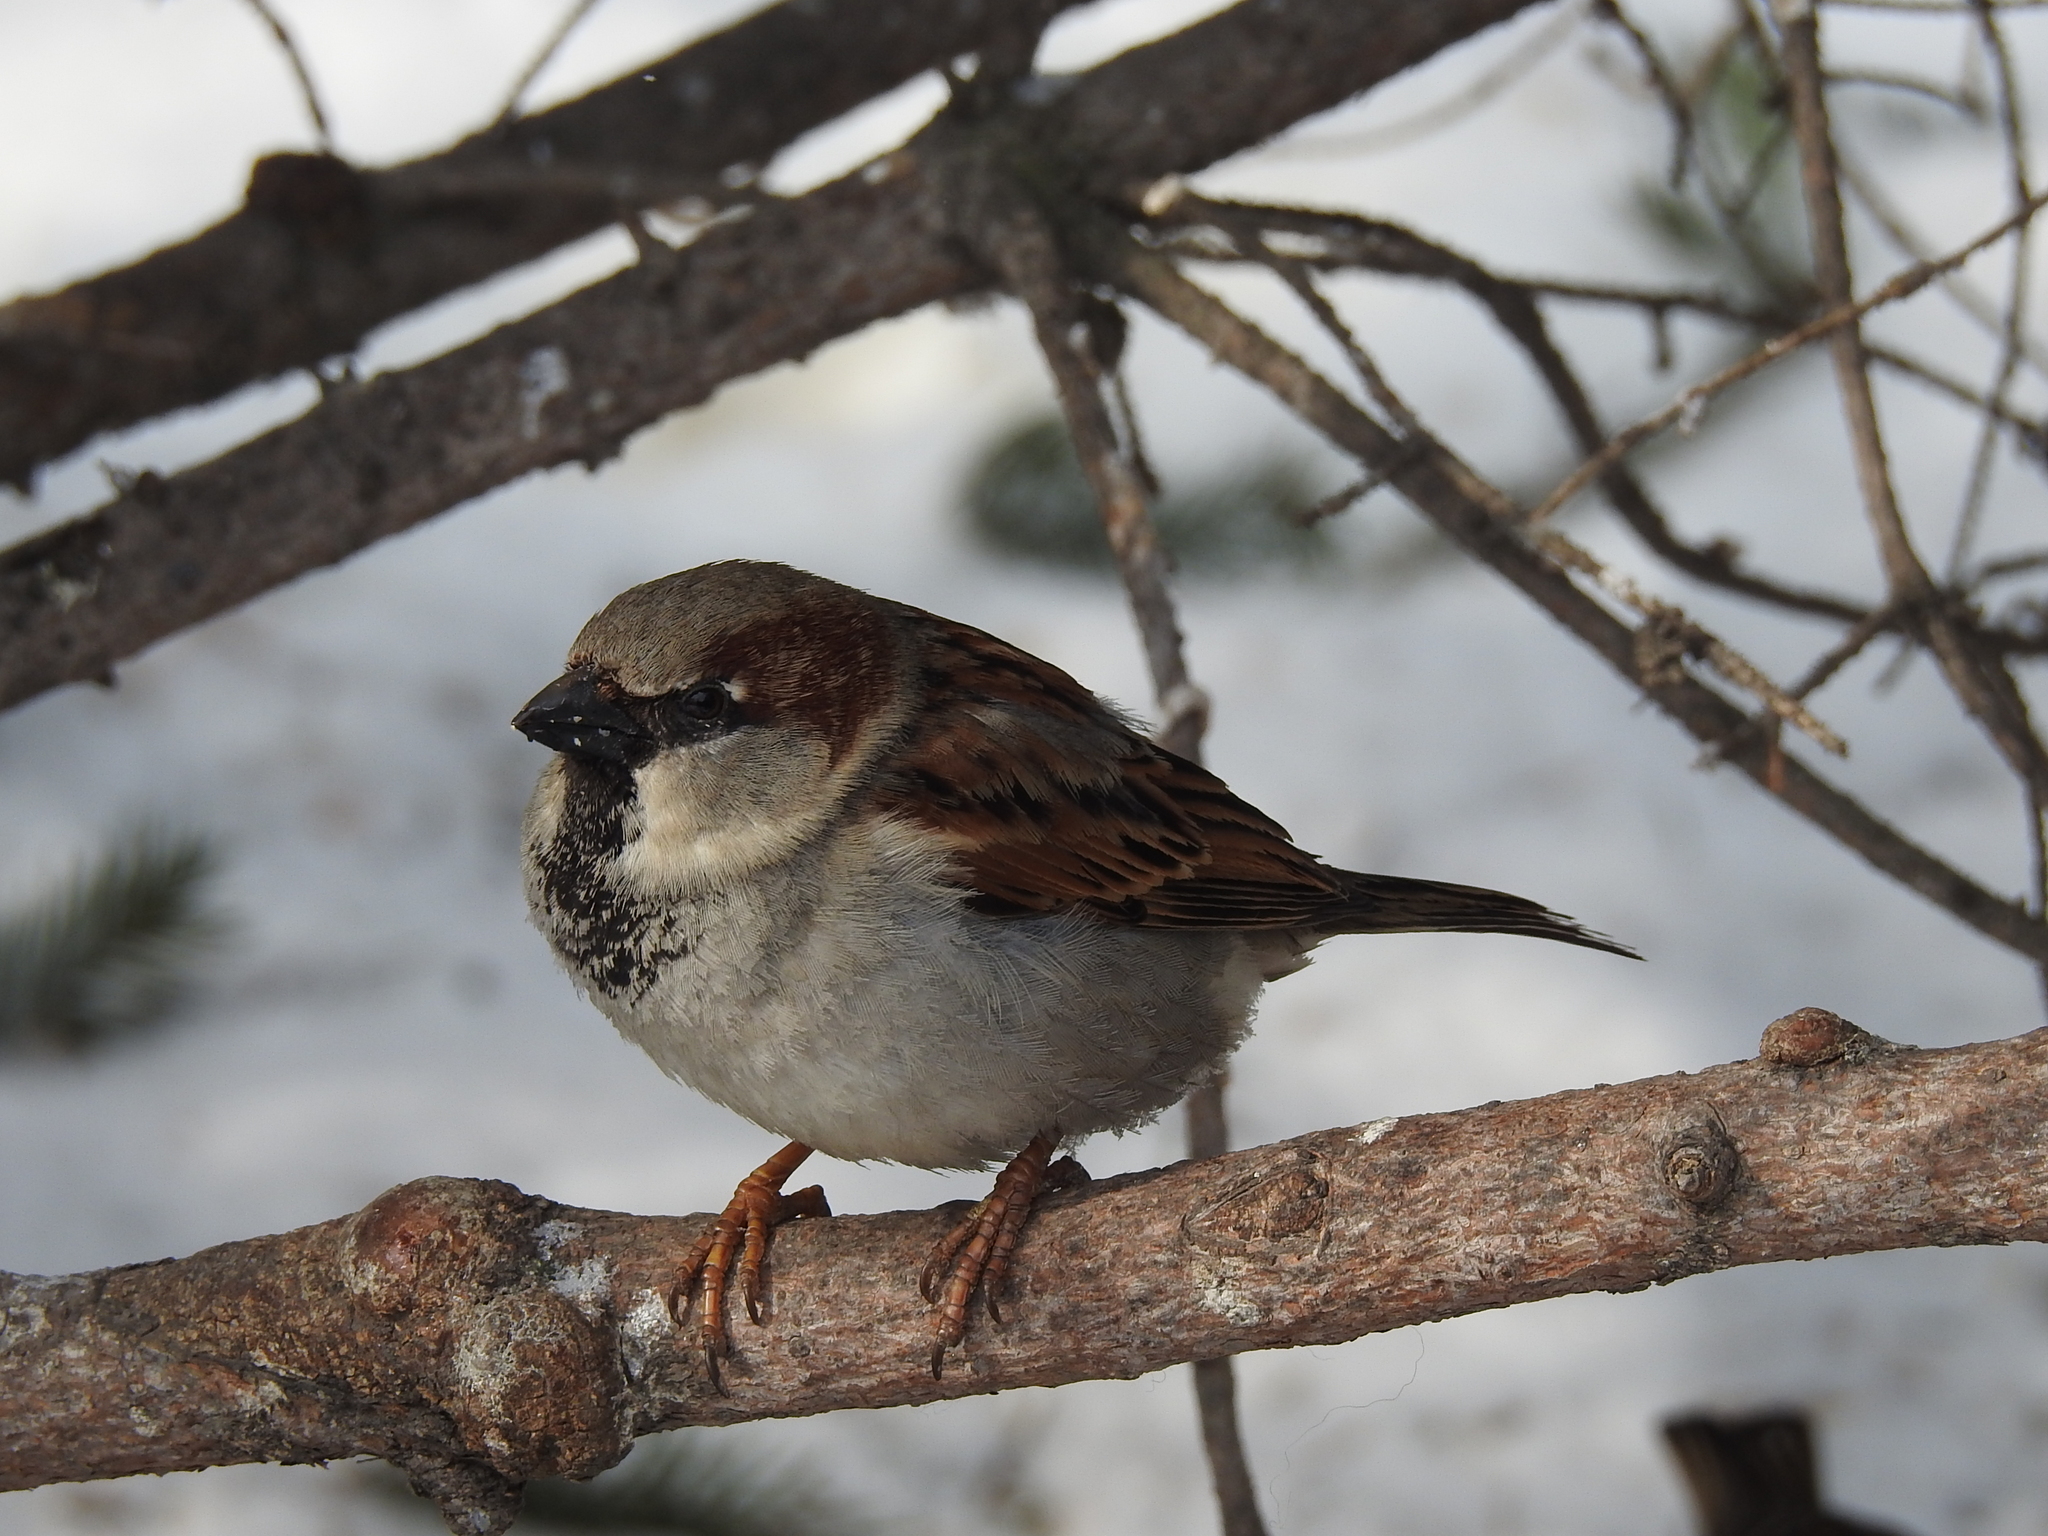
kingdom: Animalia
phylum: Chordata
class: Aves
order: Passeriformes
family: Passeridae
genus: Passer
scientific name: Passer domesticus
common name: House sparrow
